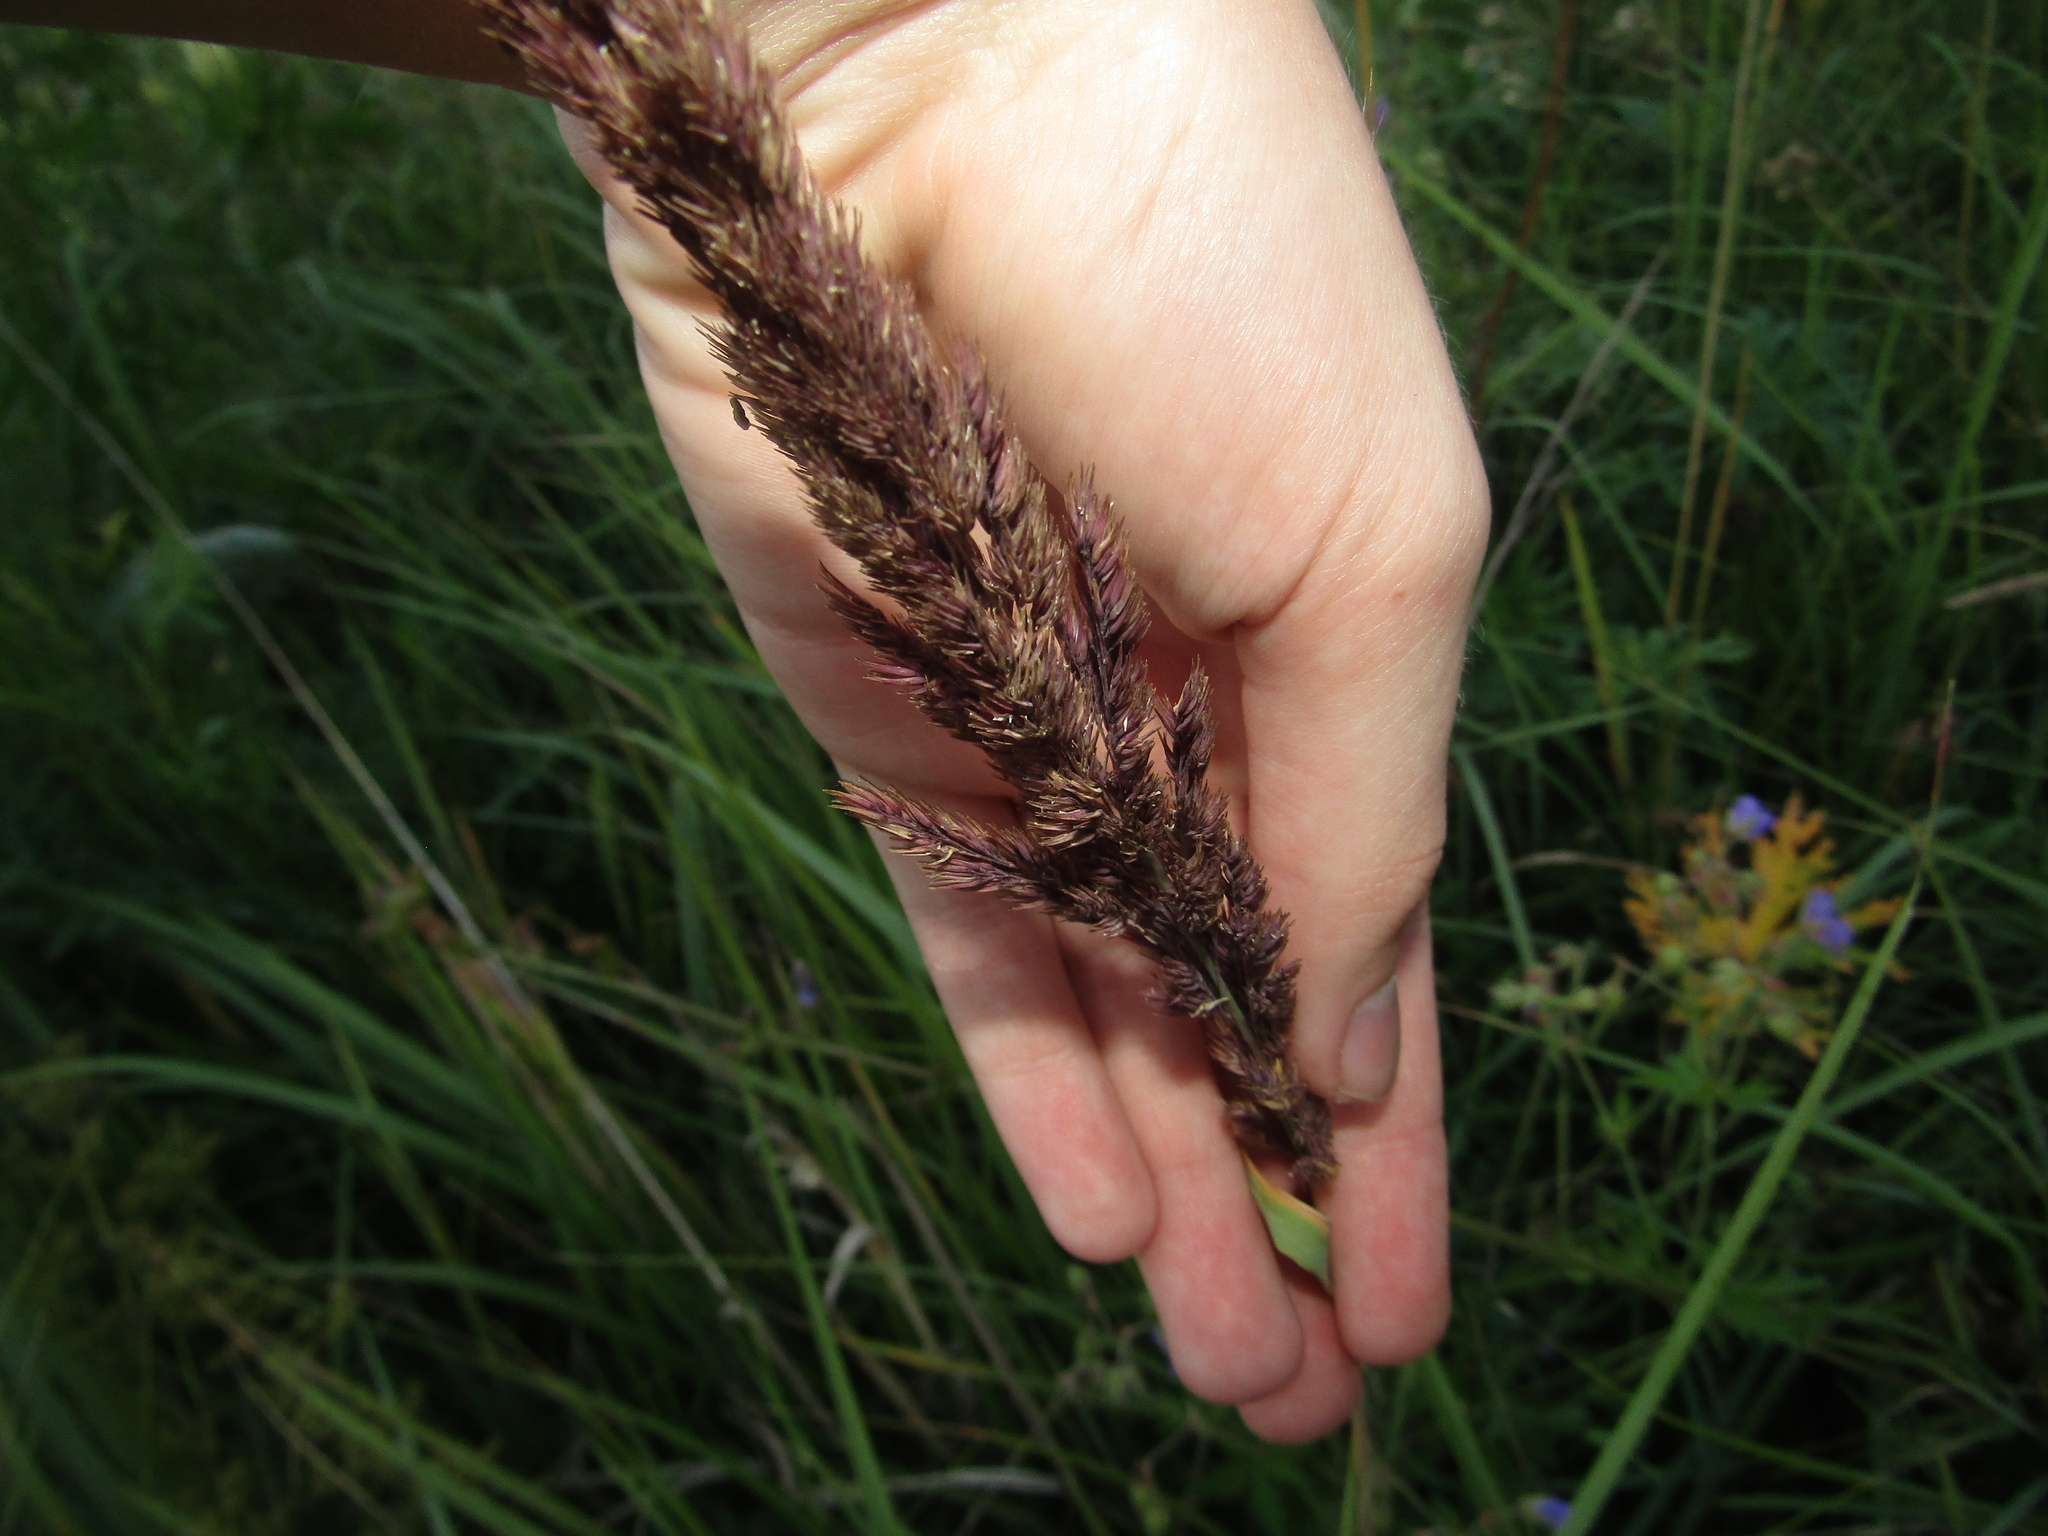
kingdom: Plantae
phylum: Tracheophyta
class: Liliopsida
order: Poales
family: Poaceae
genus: Calamagrostis
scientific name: Calamagrostis epigejos
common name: Wood small-reed
